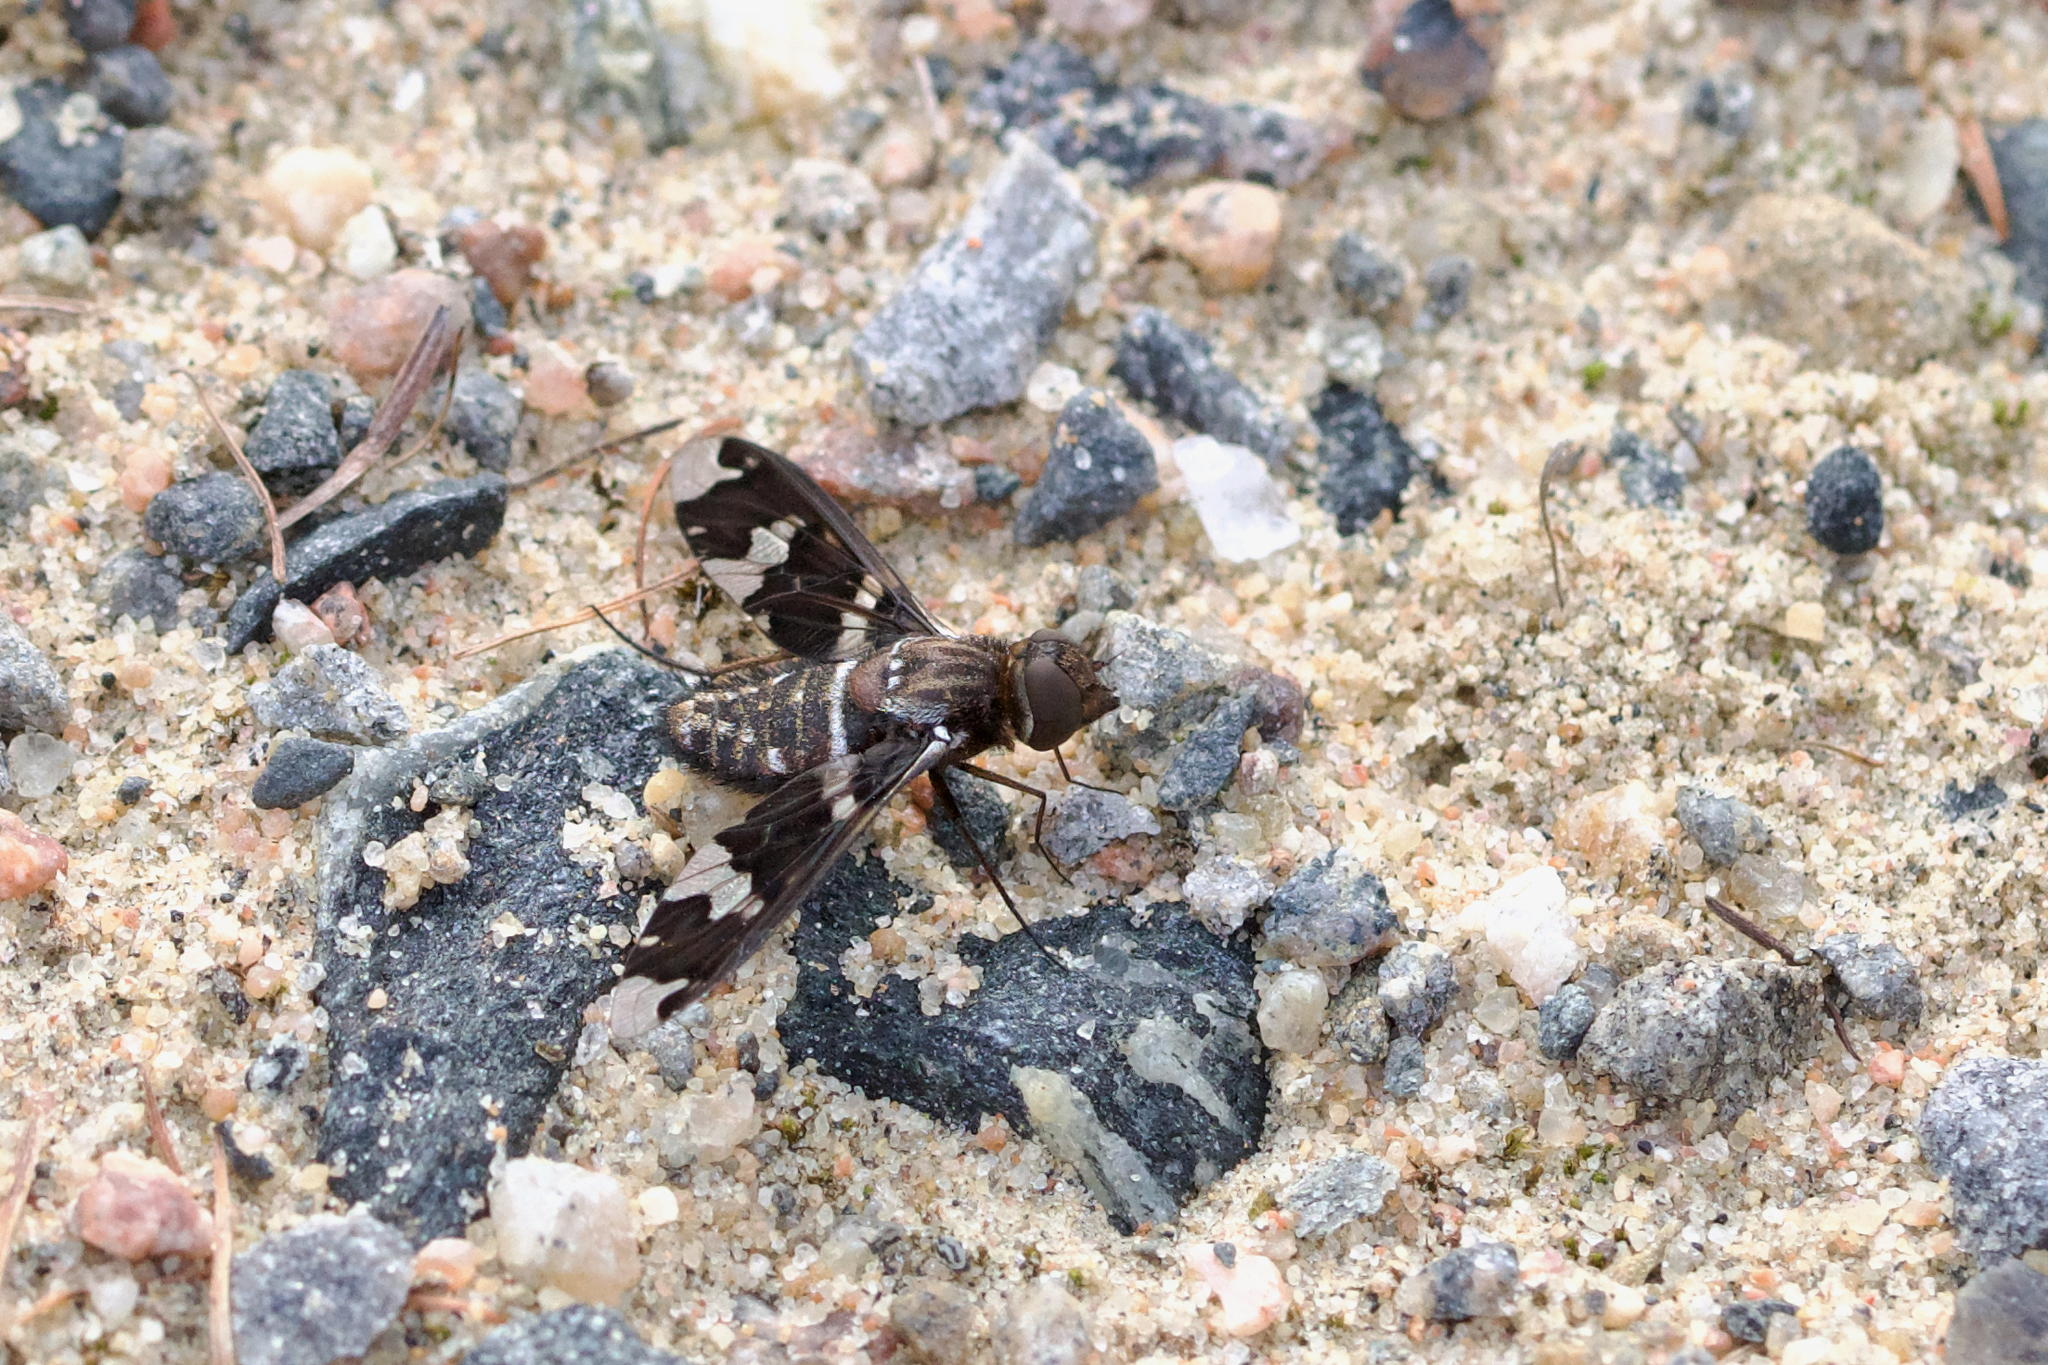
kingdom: Animalia
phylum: Arthropoda
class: Insecta
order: Diptera
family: Bombyliidae
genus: Exoprosopa
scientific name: Exoprosopa dorcadion
